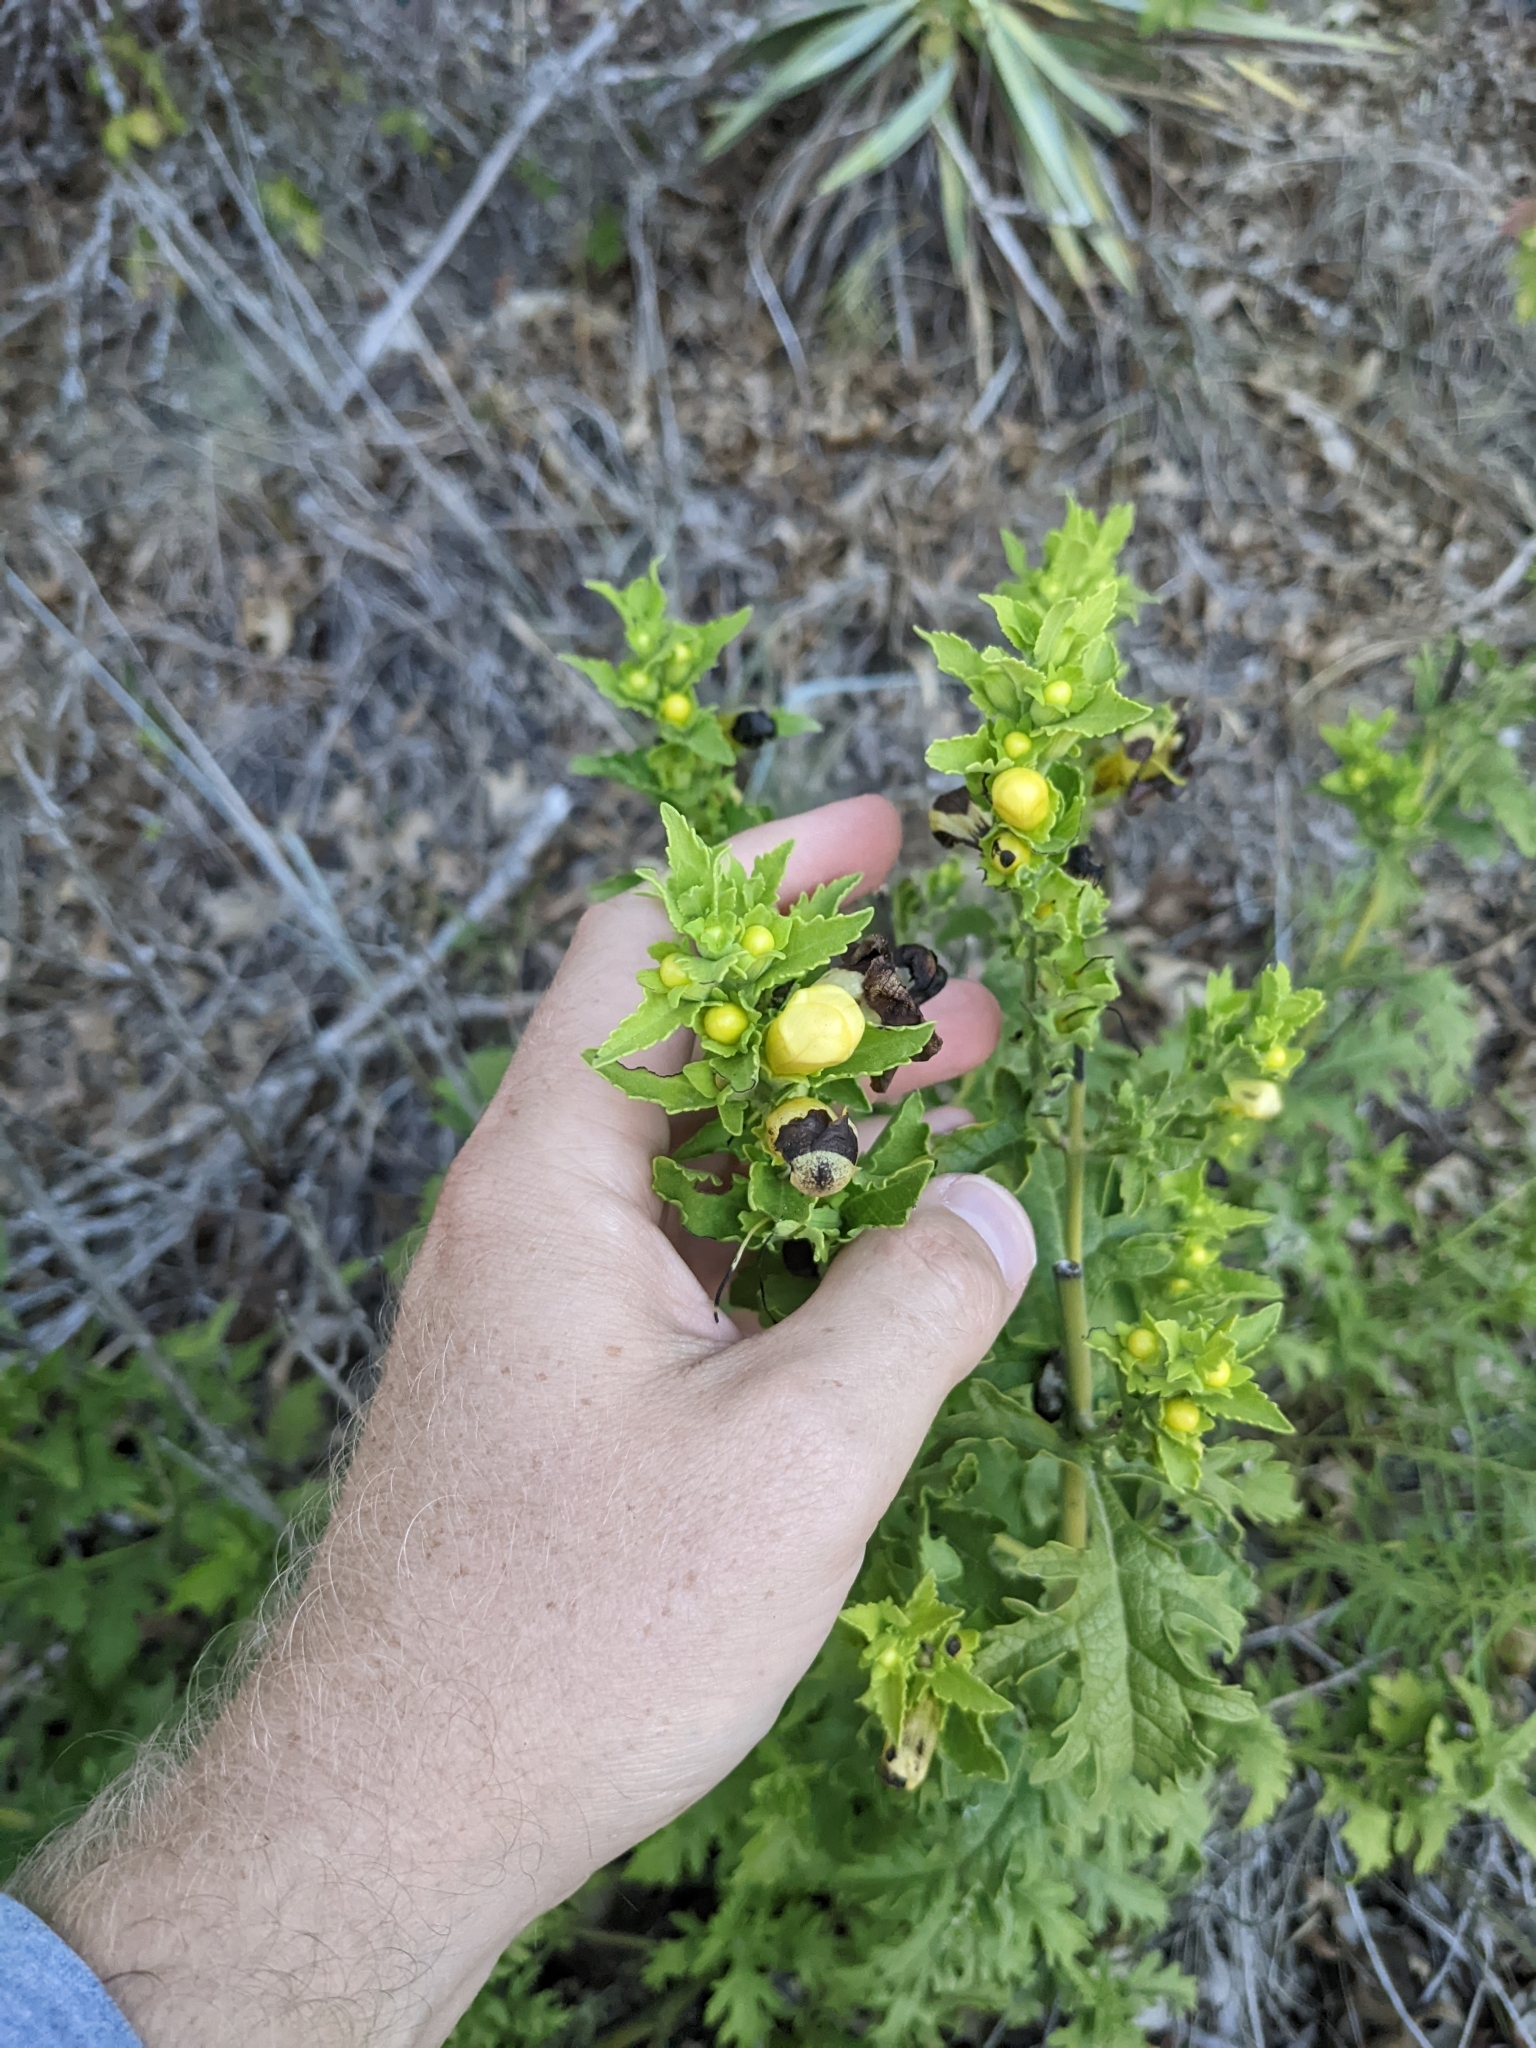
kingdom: Plantae
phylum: Tracheophyta
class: Magnoliopsida
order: Lamiales
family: Orobanchaceae
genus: Aureolaria
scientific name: Aureolaria grandiflora
